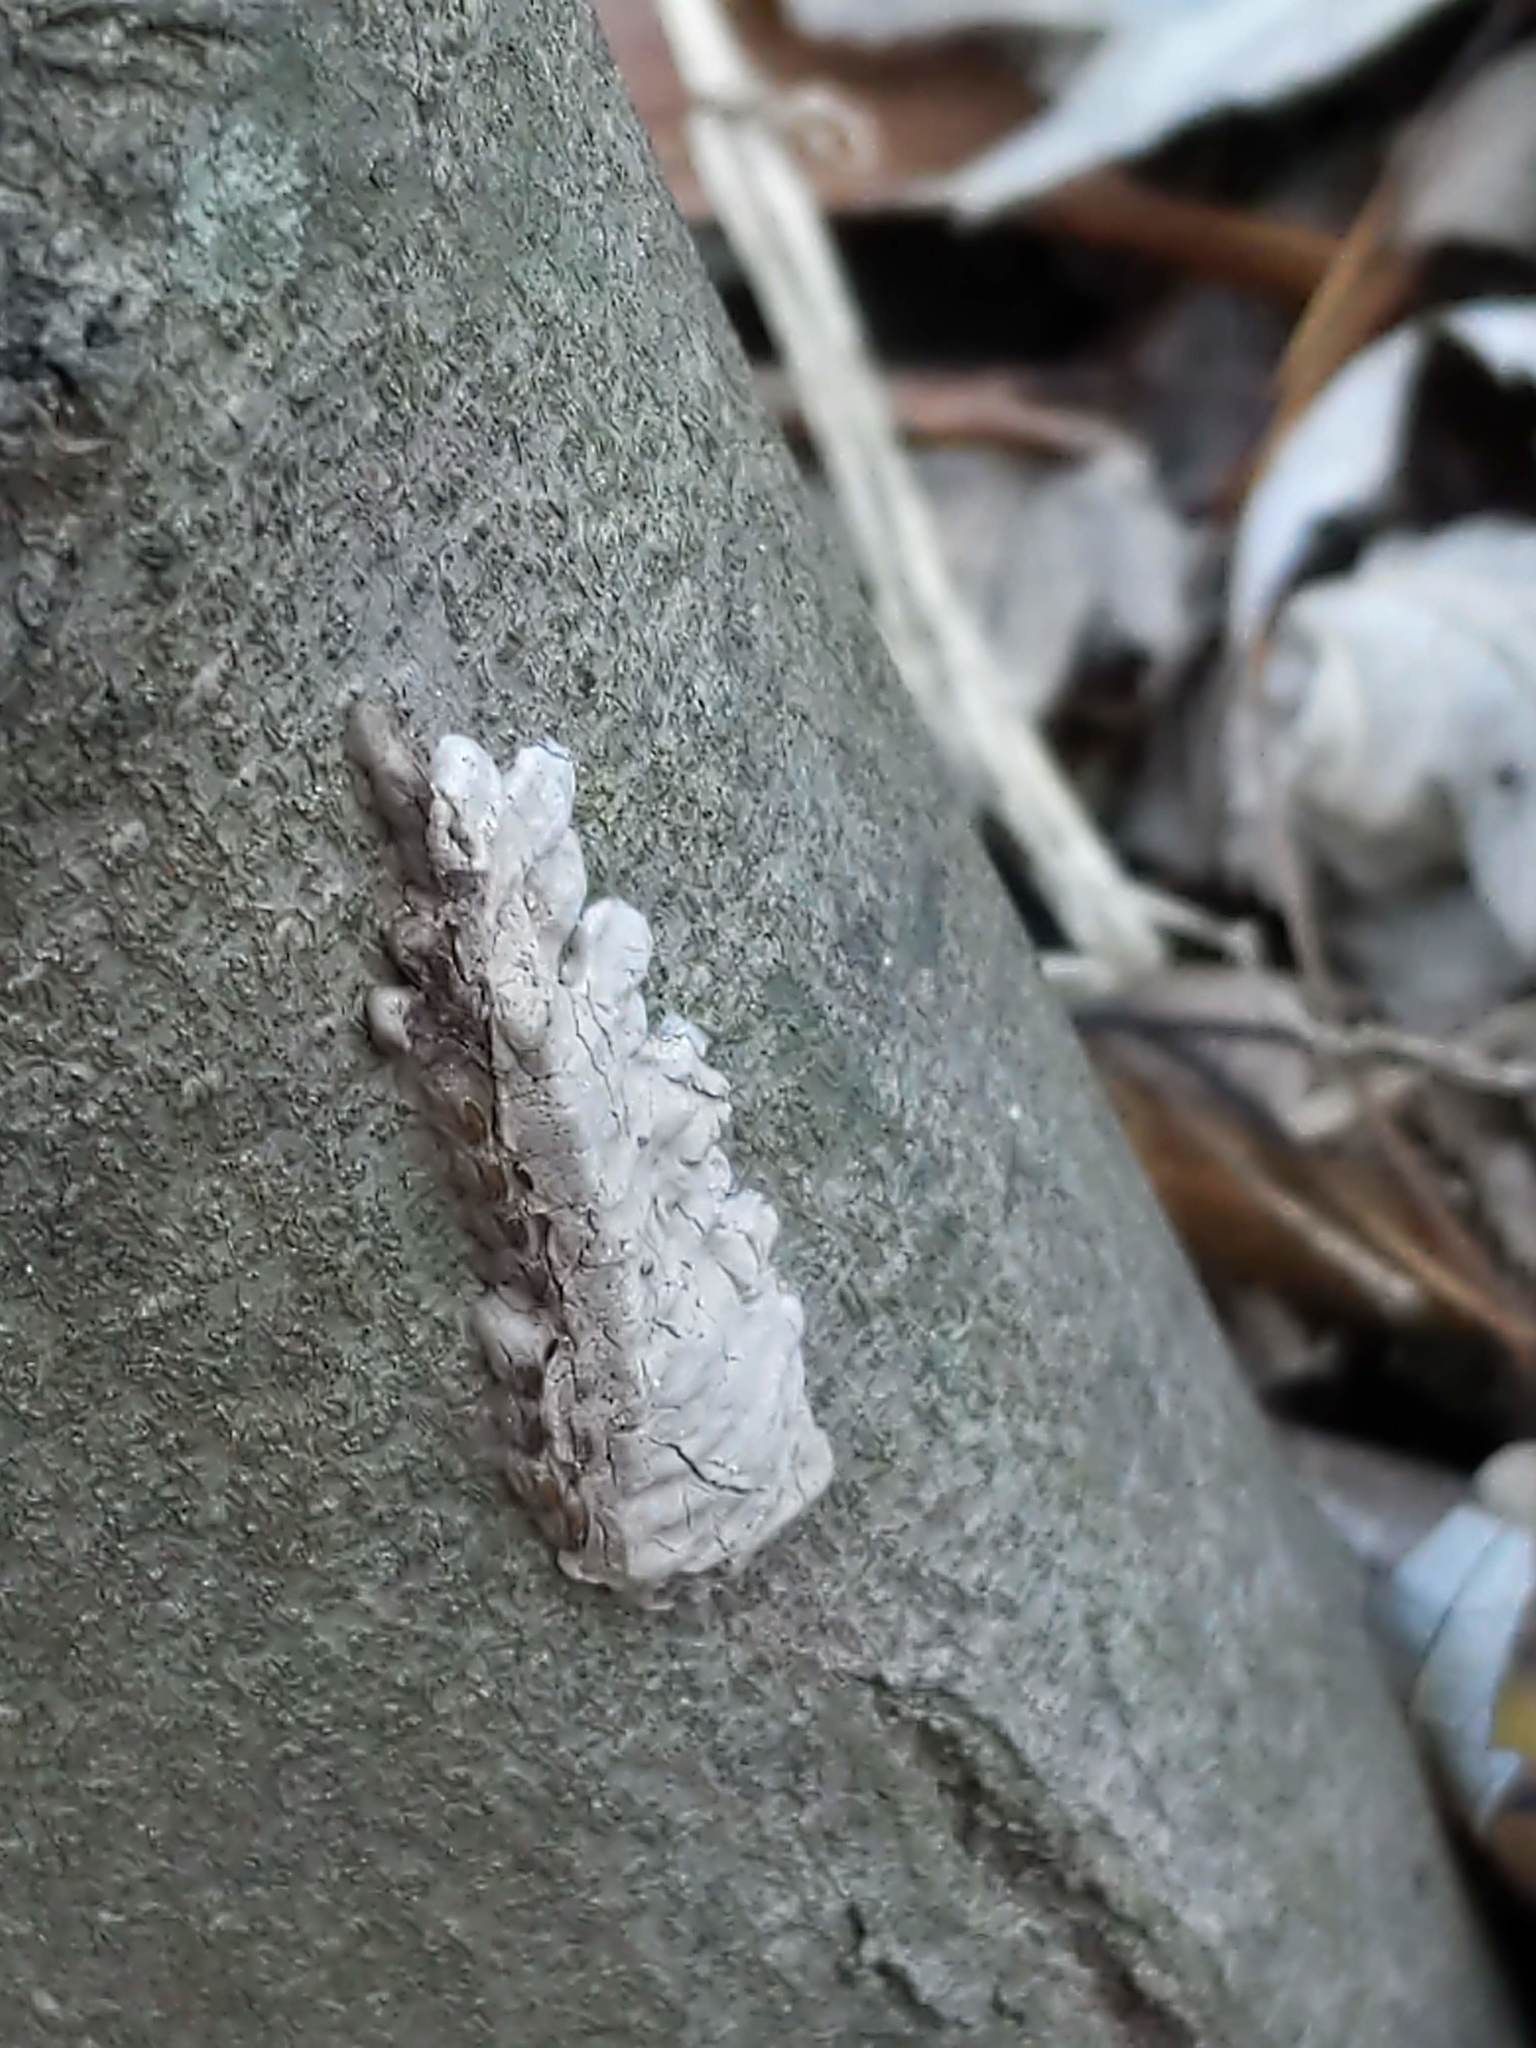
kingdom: Animalia
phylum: Arthropoda
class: Insecta
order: Hemiptera
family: Fulgoridae
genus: Lycorma
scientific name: Lycorma delicatula
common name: Spotted lanternfly
